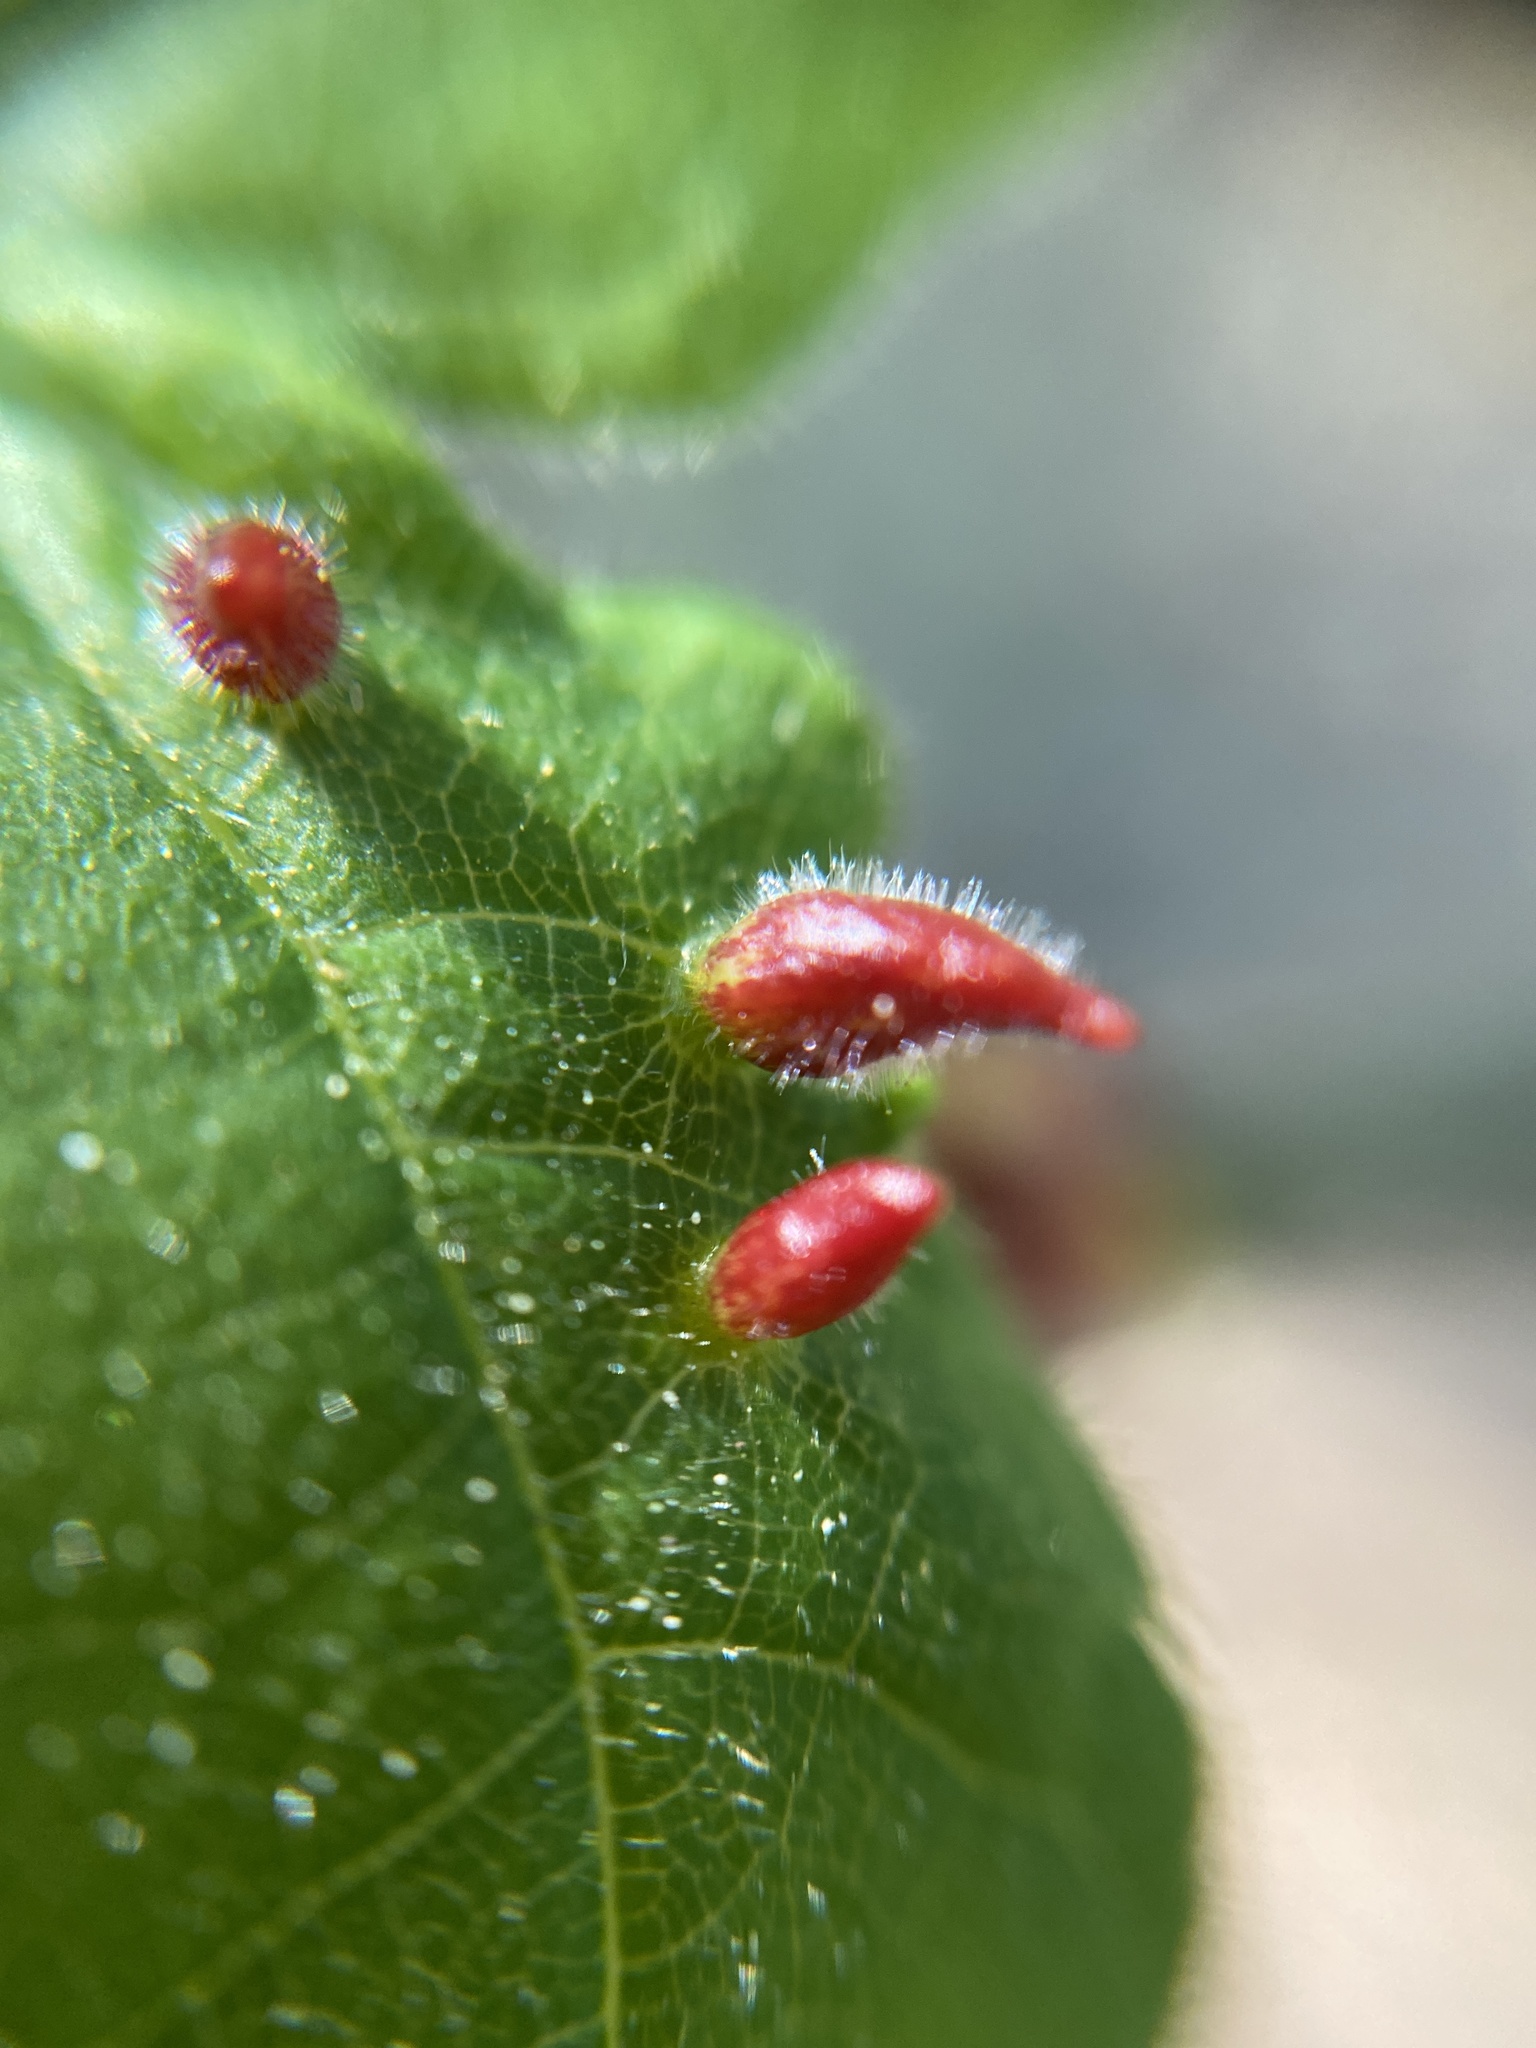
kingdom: Animalia
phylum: Arthropoda
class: Arachnida
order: Trombidiformes
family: Eriophyidae
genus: Eriophyes
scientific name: Eriophyes tiliae
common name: Red nail gall mite
